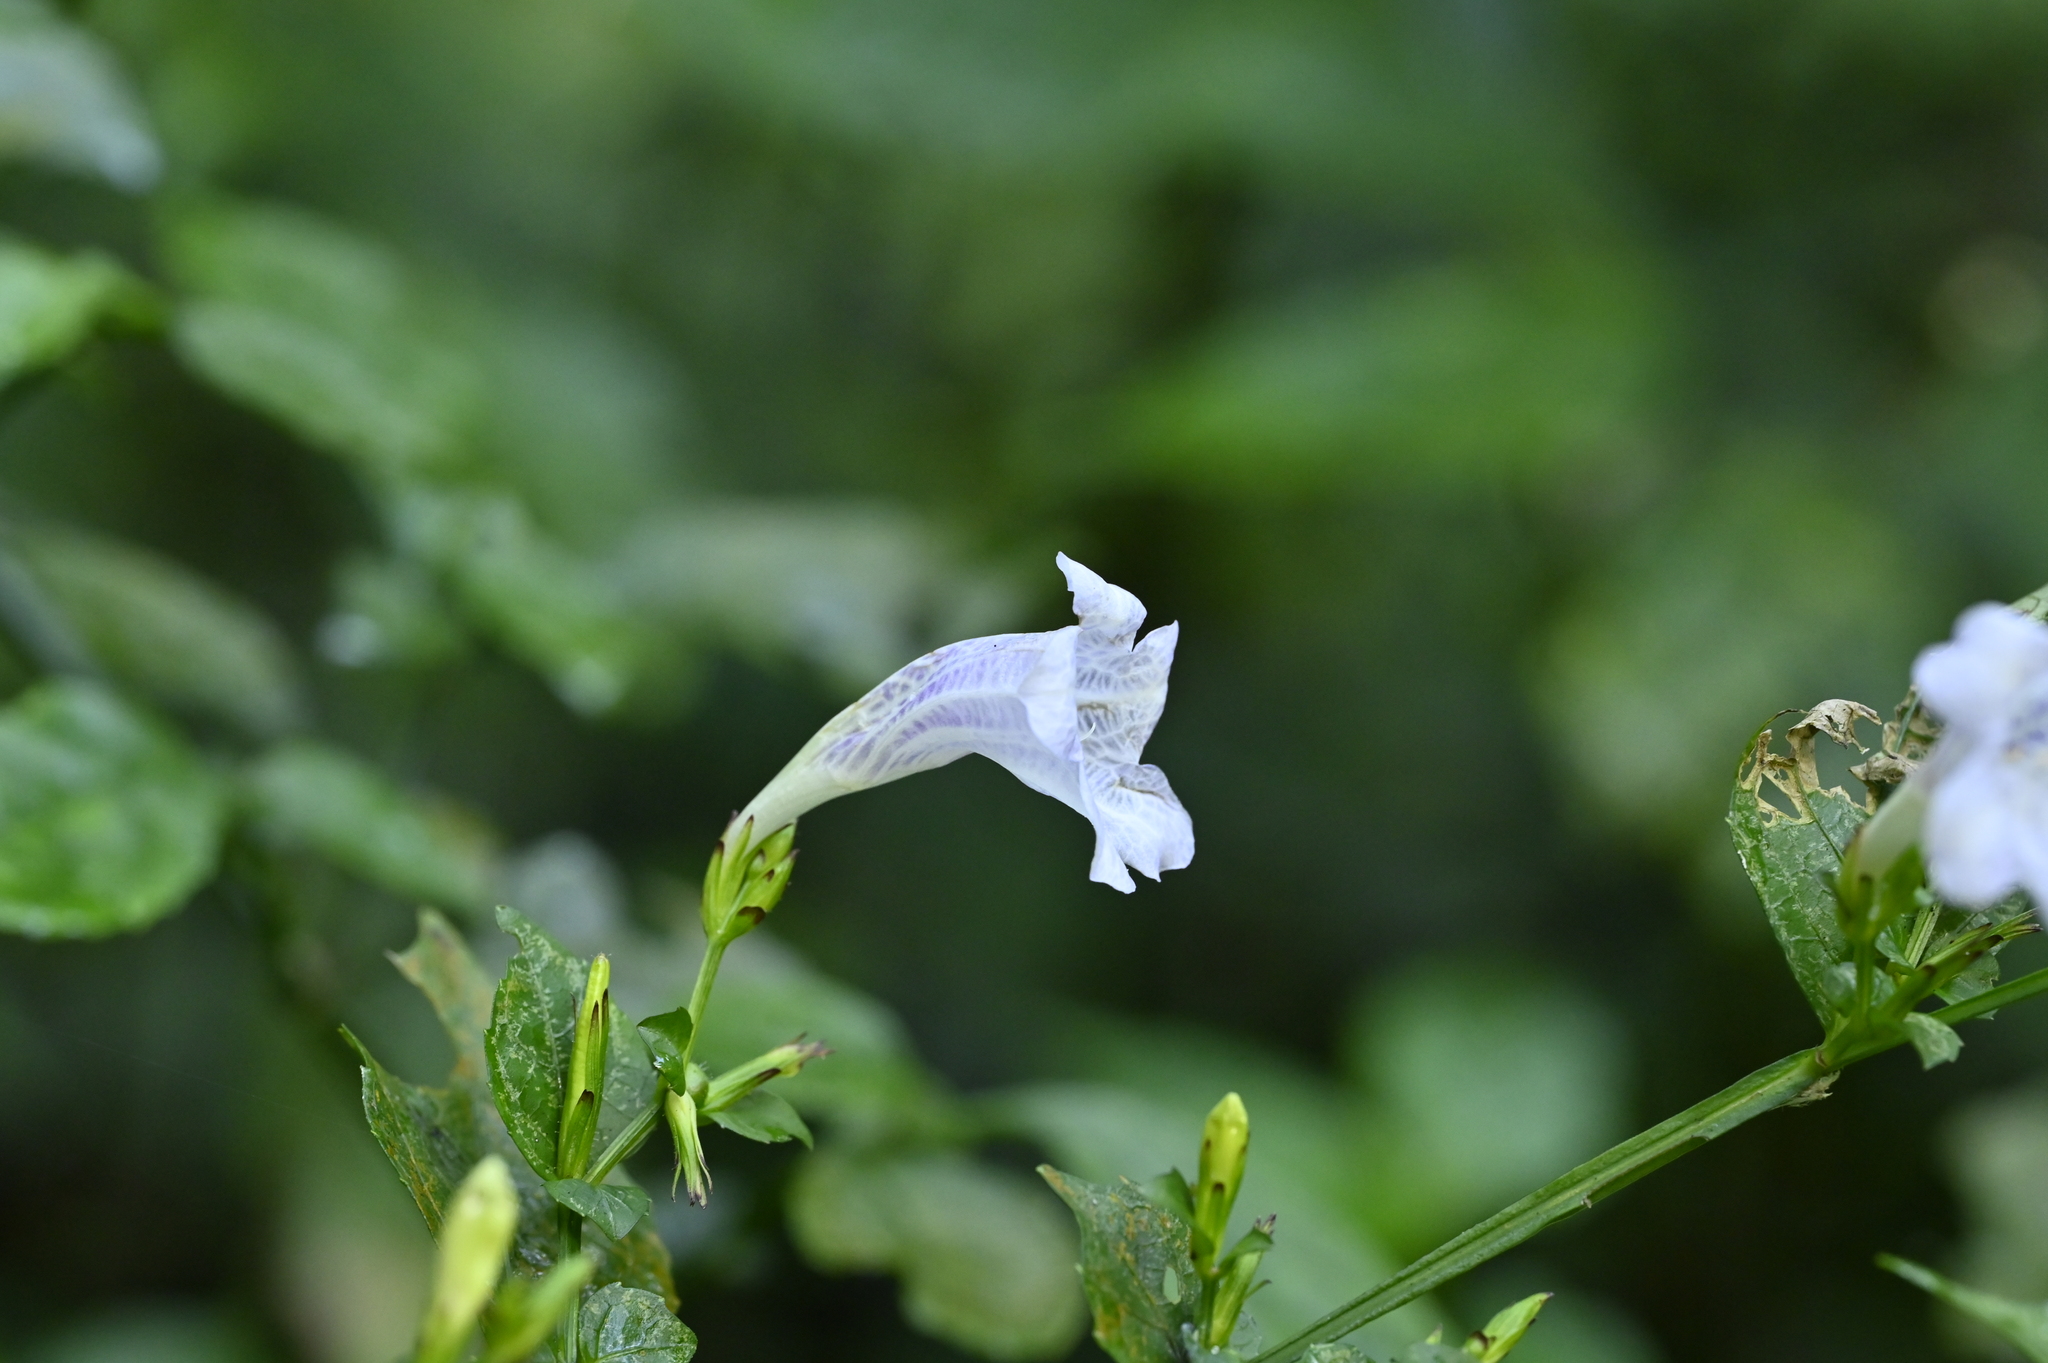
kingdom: Plantae
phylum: Tracheophyta
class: Magnoliopsida
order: Lamiales
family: Acanthaceae
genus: Strobilanthes
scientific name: Strobilanthes flexicaulis
